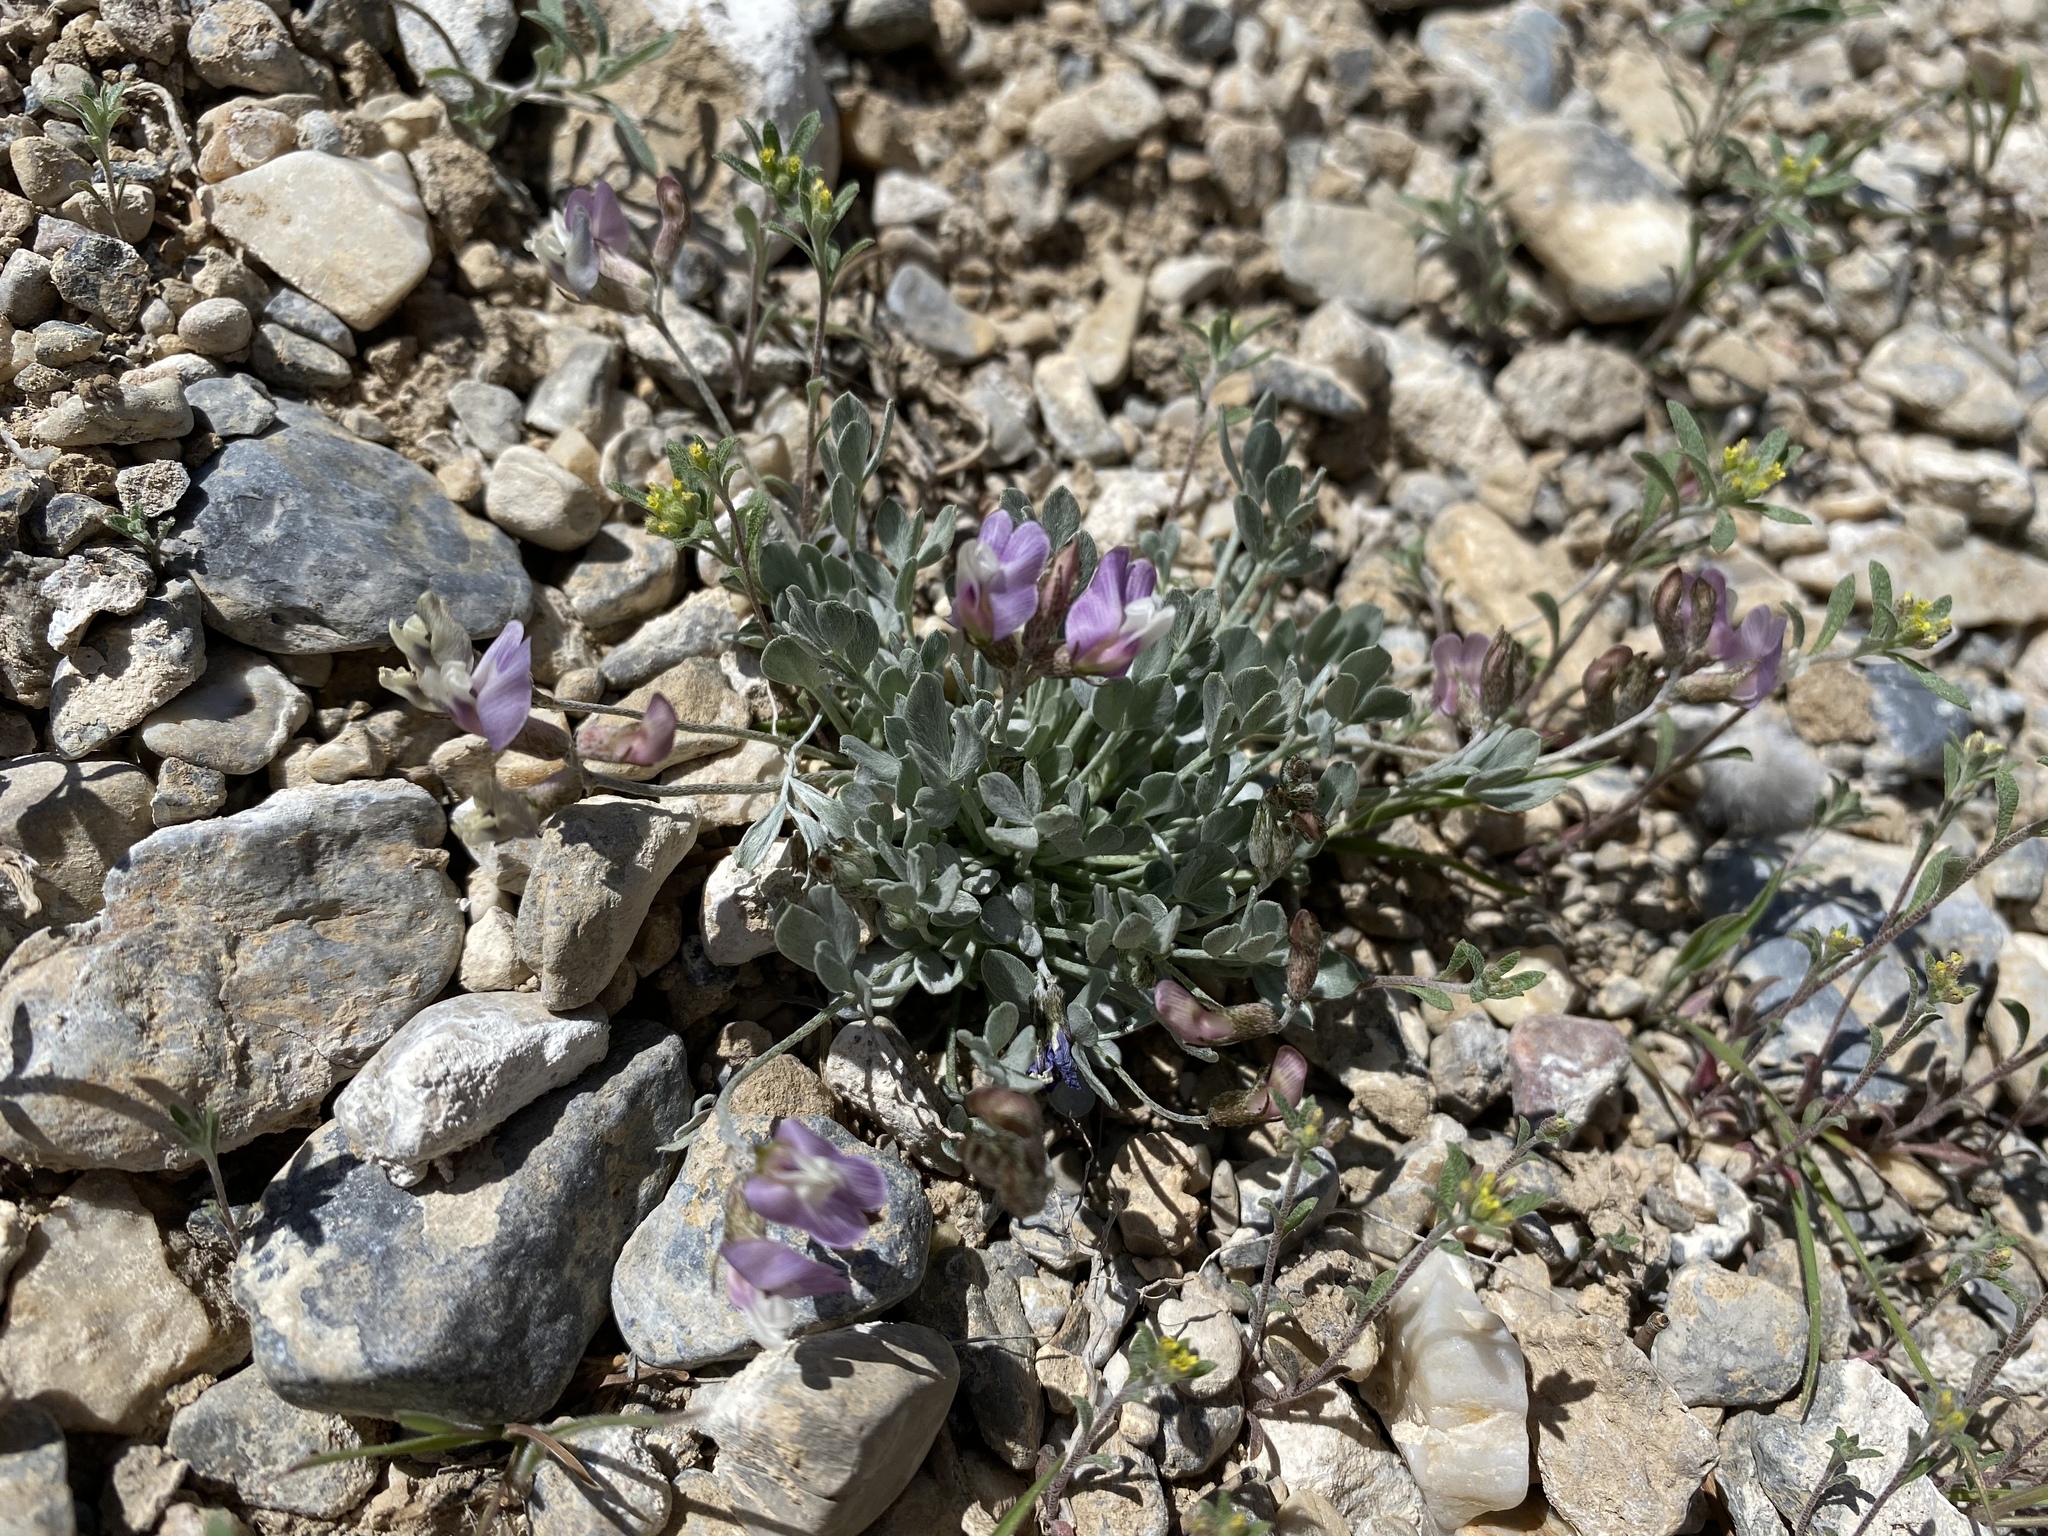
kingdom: Plantae
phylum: Tracheophyta
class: Magnoliopsida
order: Fabales
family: Fabaceae
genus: Astragalus
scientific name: Astragalus calycosus
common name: King's milkvetch
